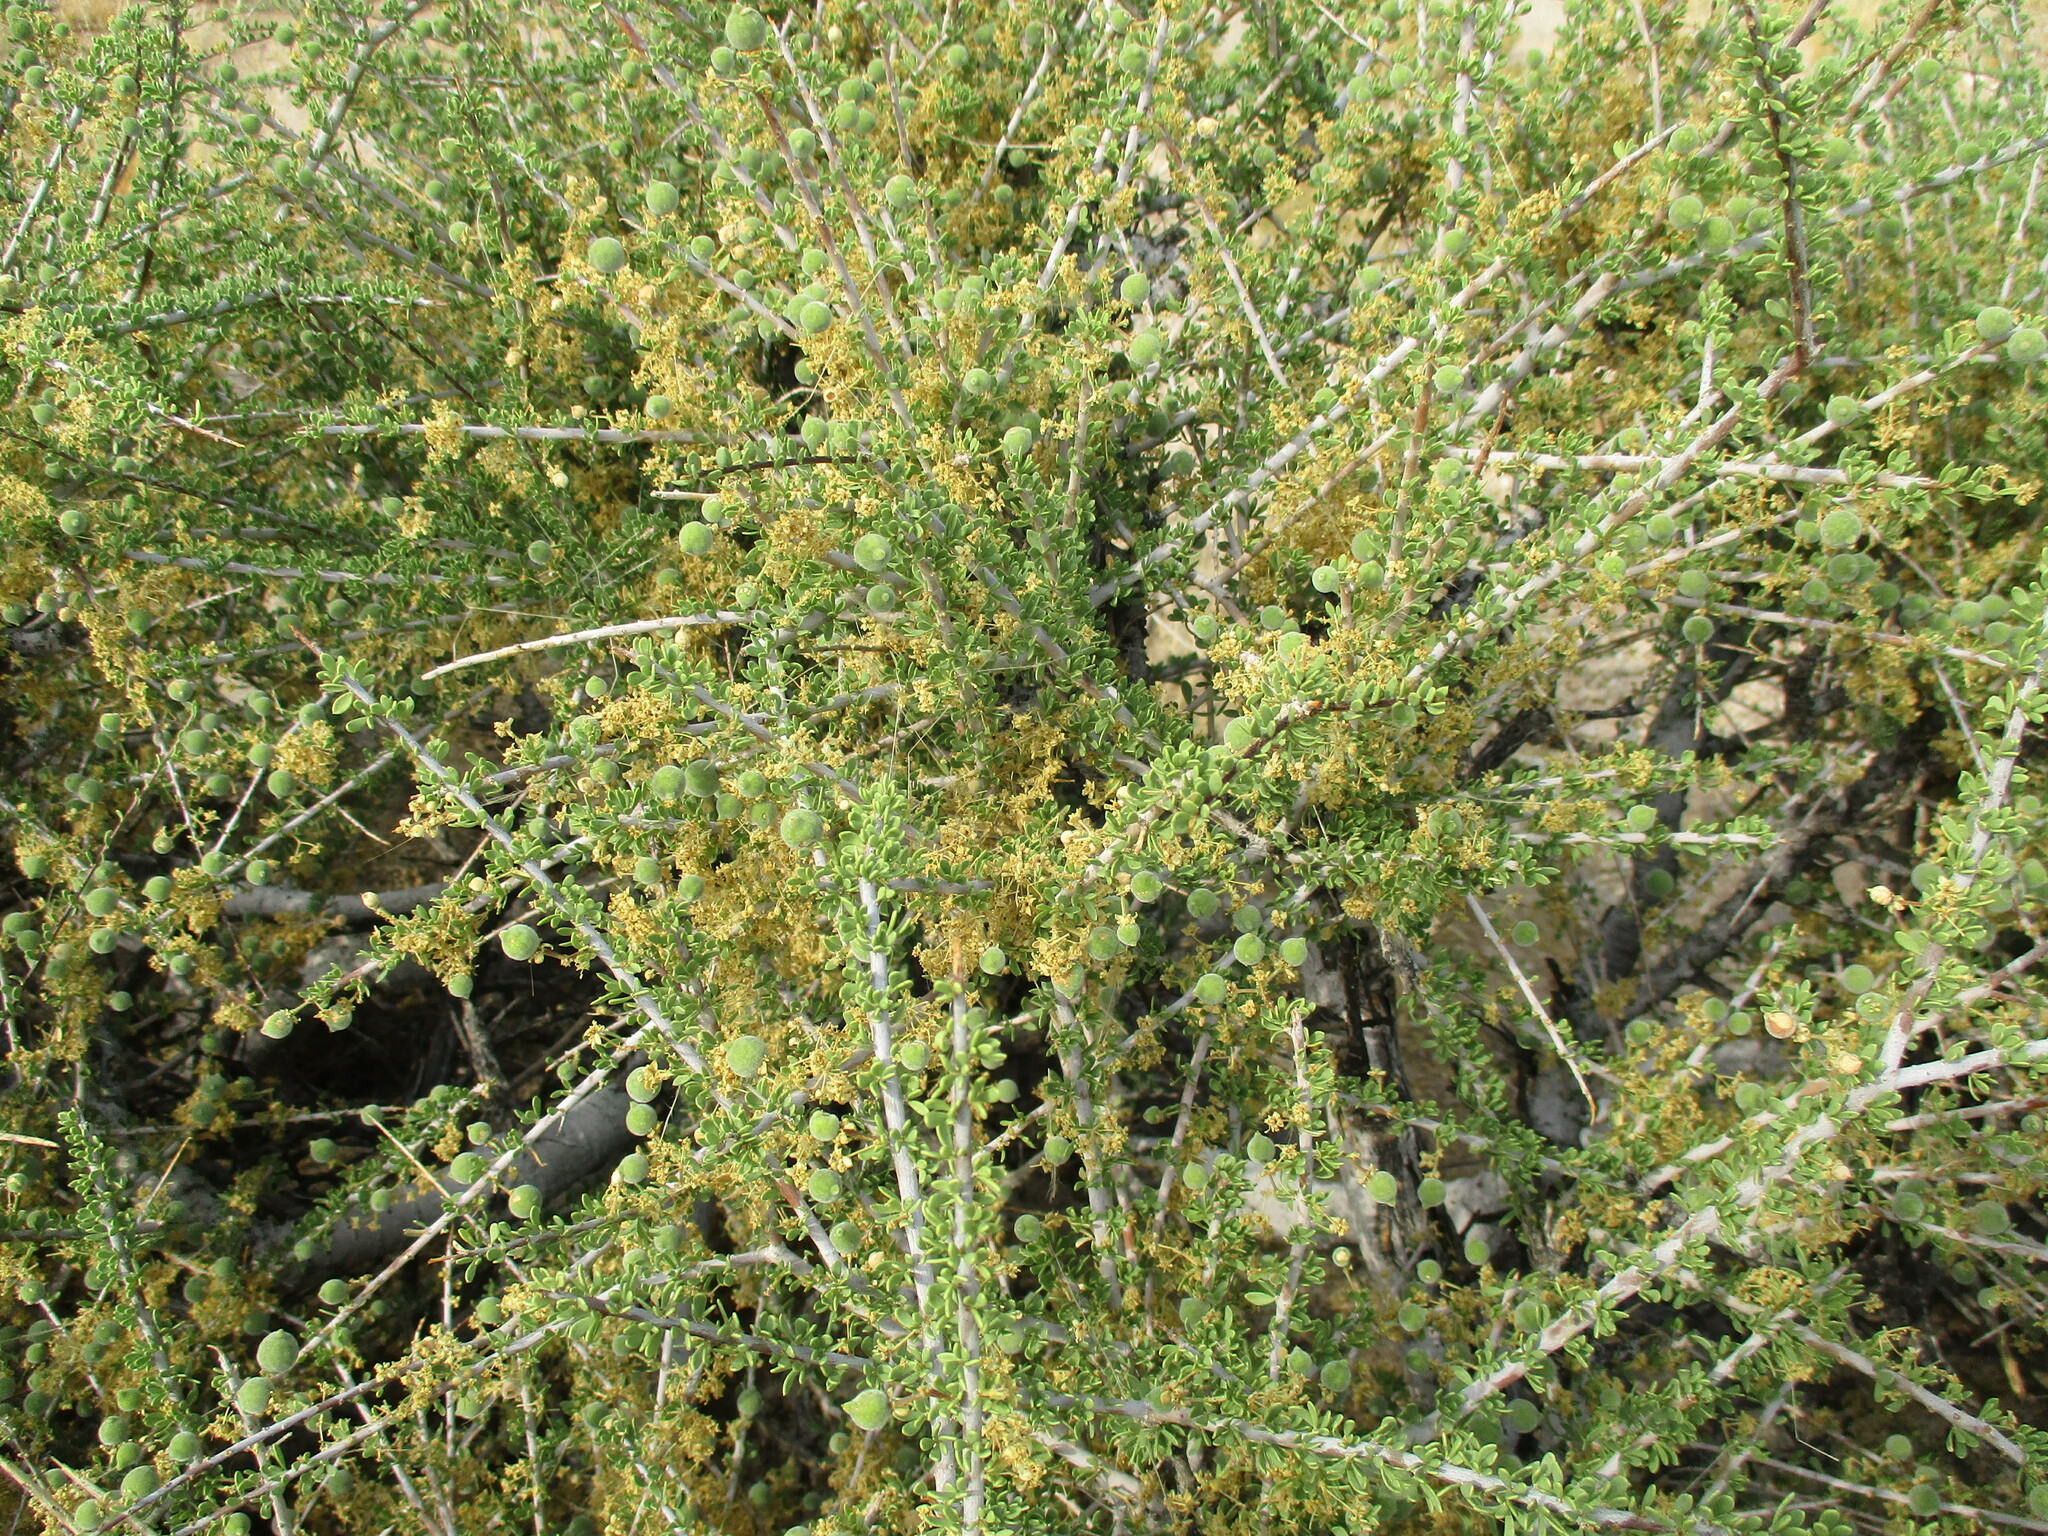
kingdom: Plantae
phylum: Tracheophyta
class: Magnoliopsida
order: Brassicales
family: Capparaceae
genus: Boscia
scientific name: Boscia foetida
